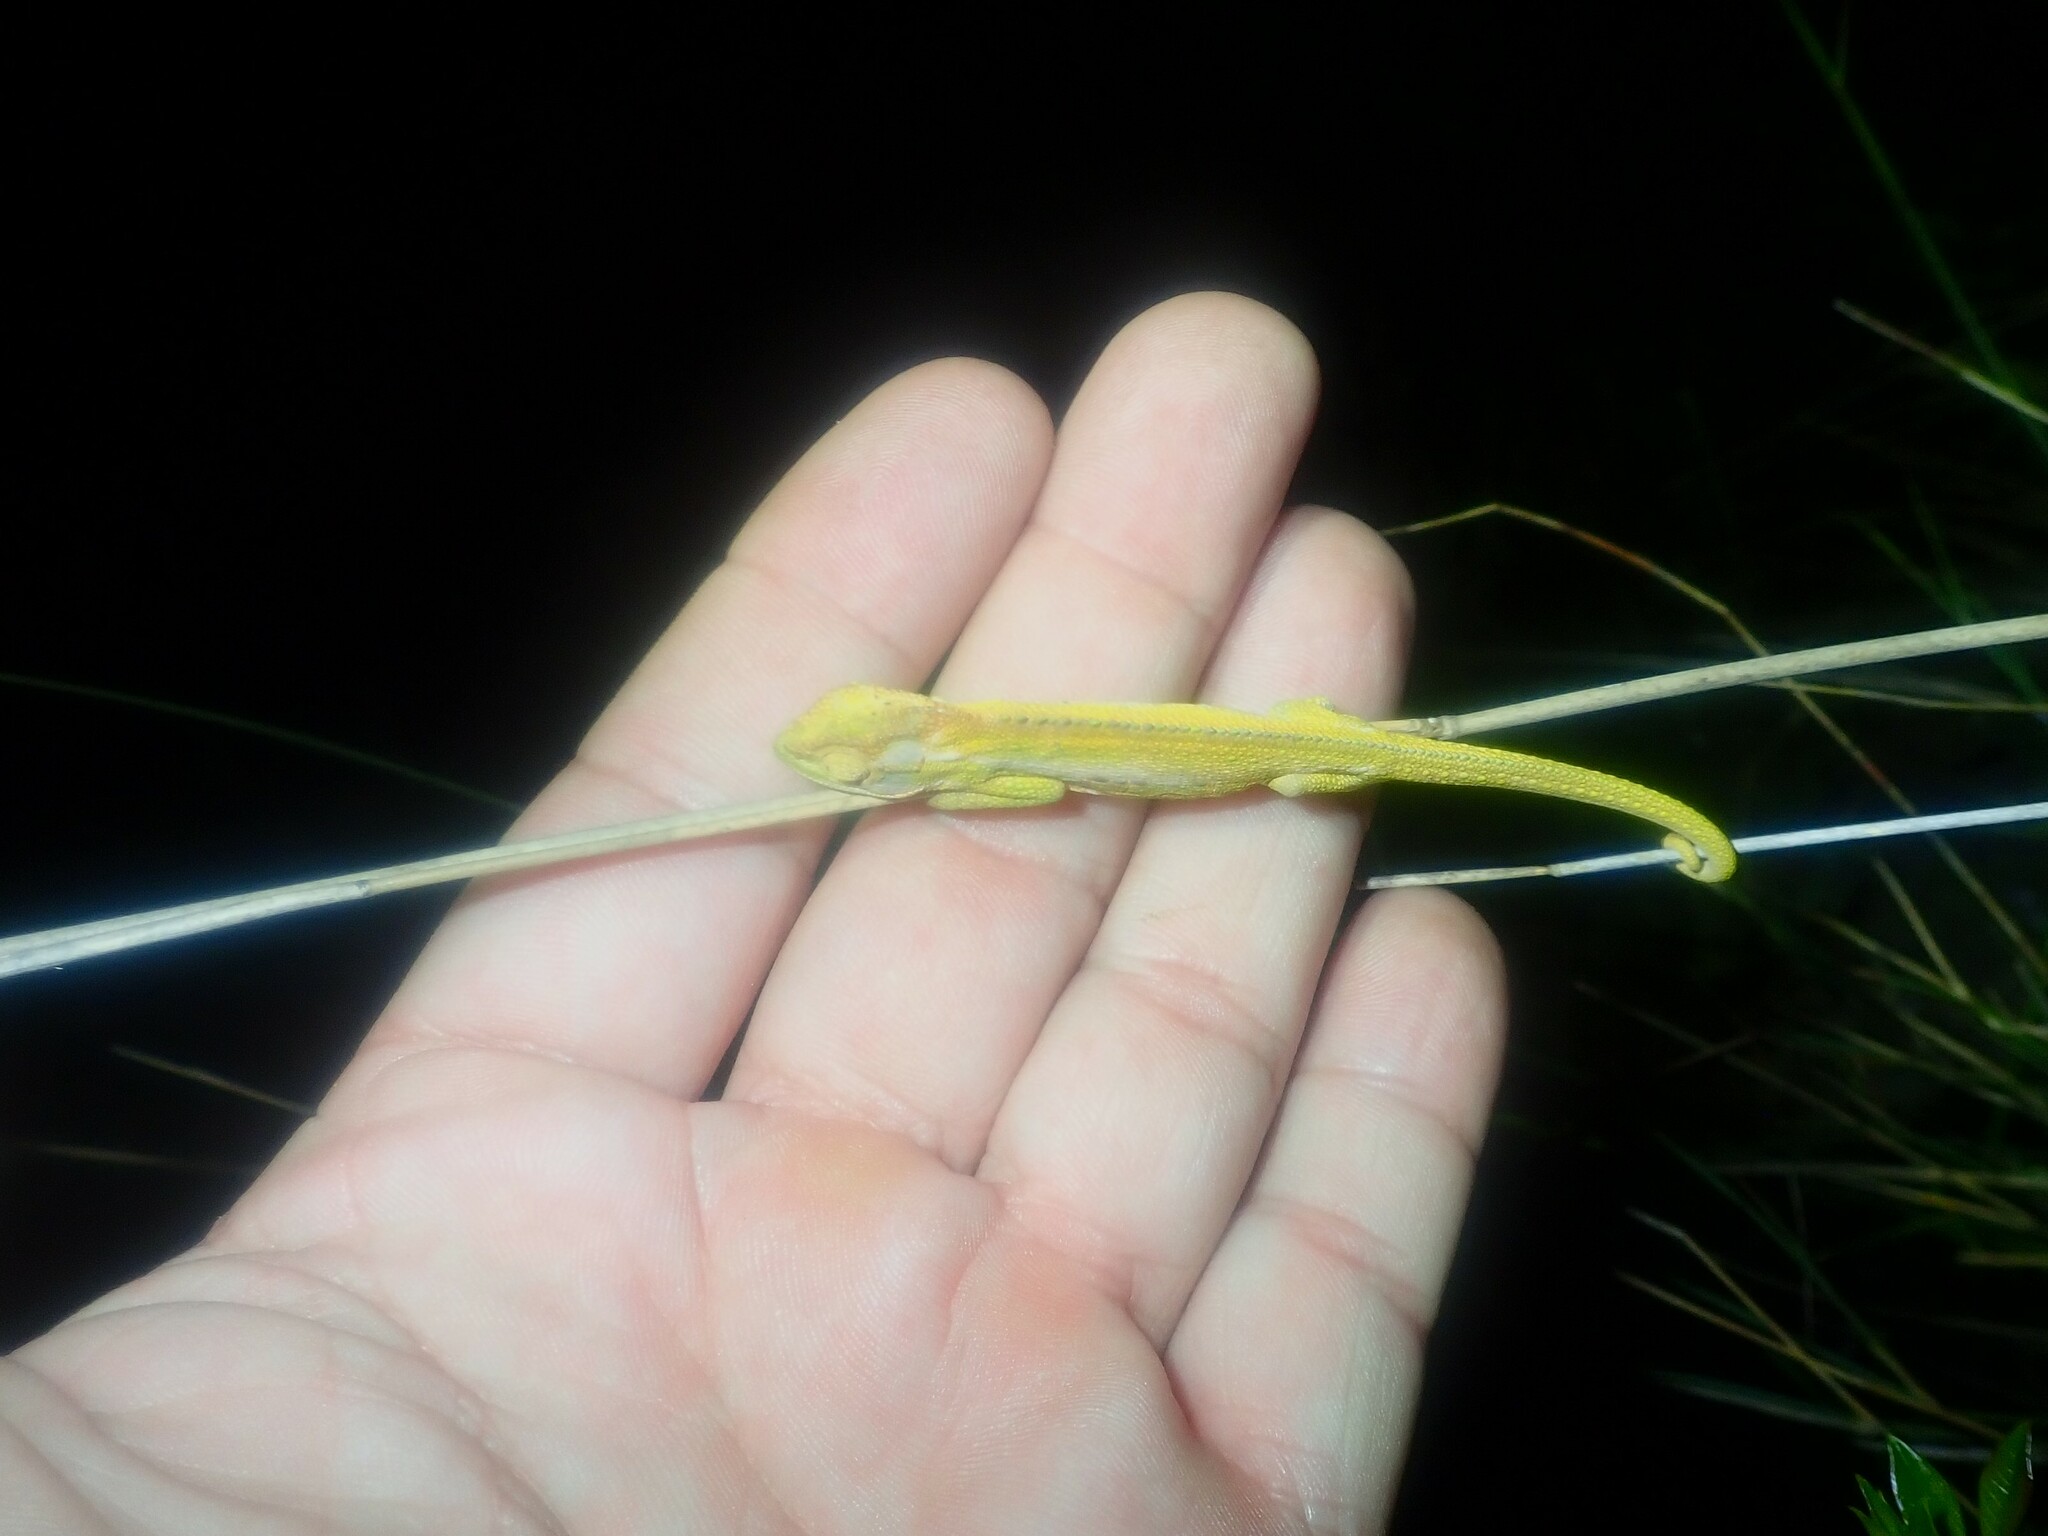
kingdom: Animalia
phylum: Chordata
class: Squamata
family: Chamaeleonidae
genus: Bradypodion
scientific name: Bradypodion pumilum
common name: Cape dwarf chameleon
